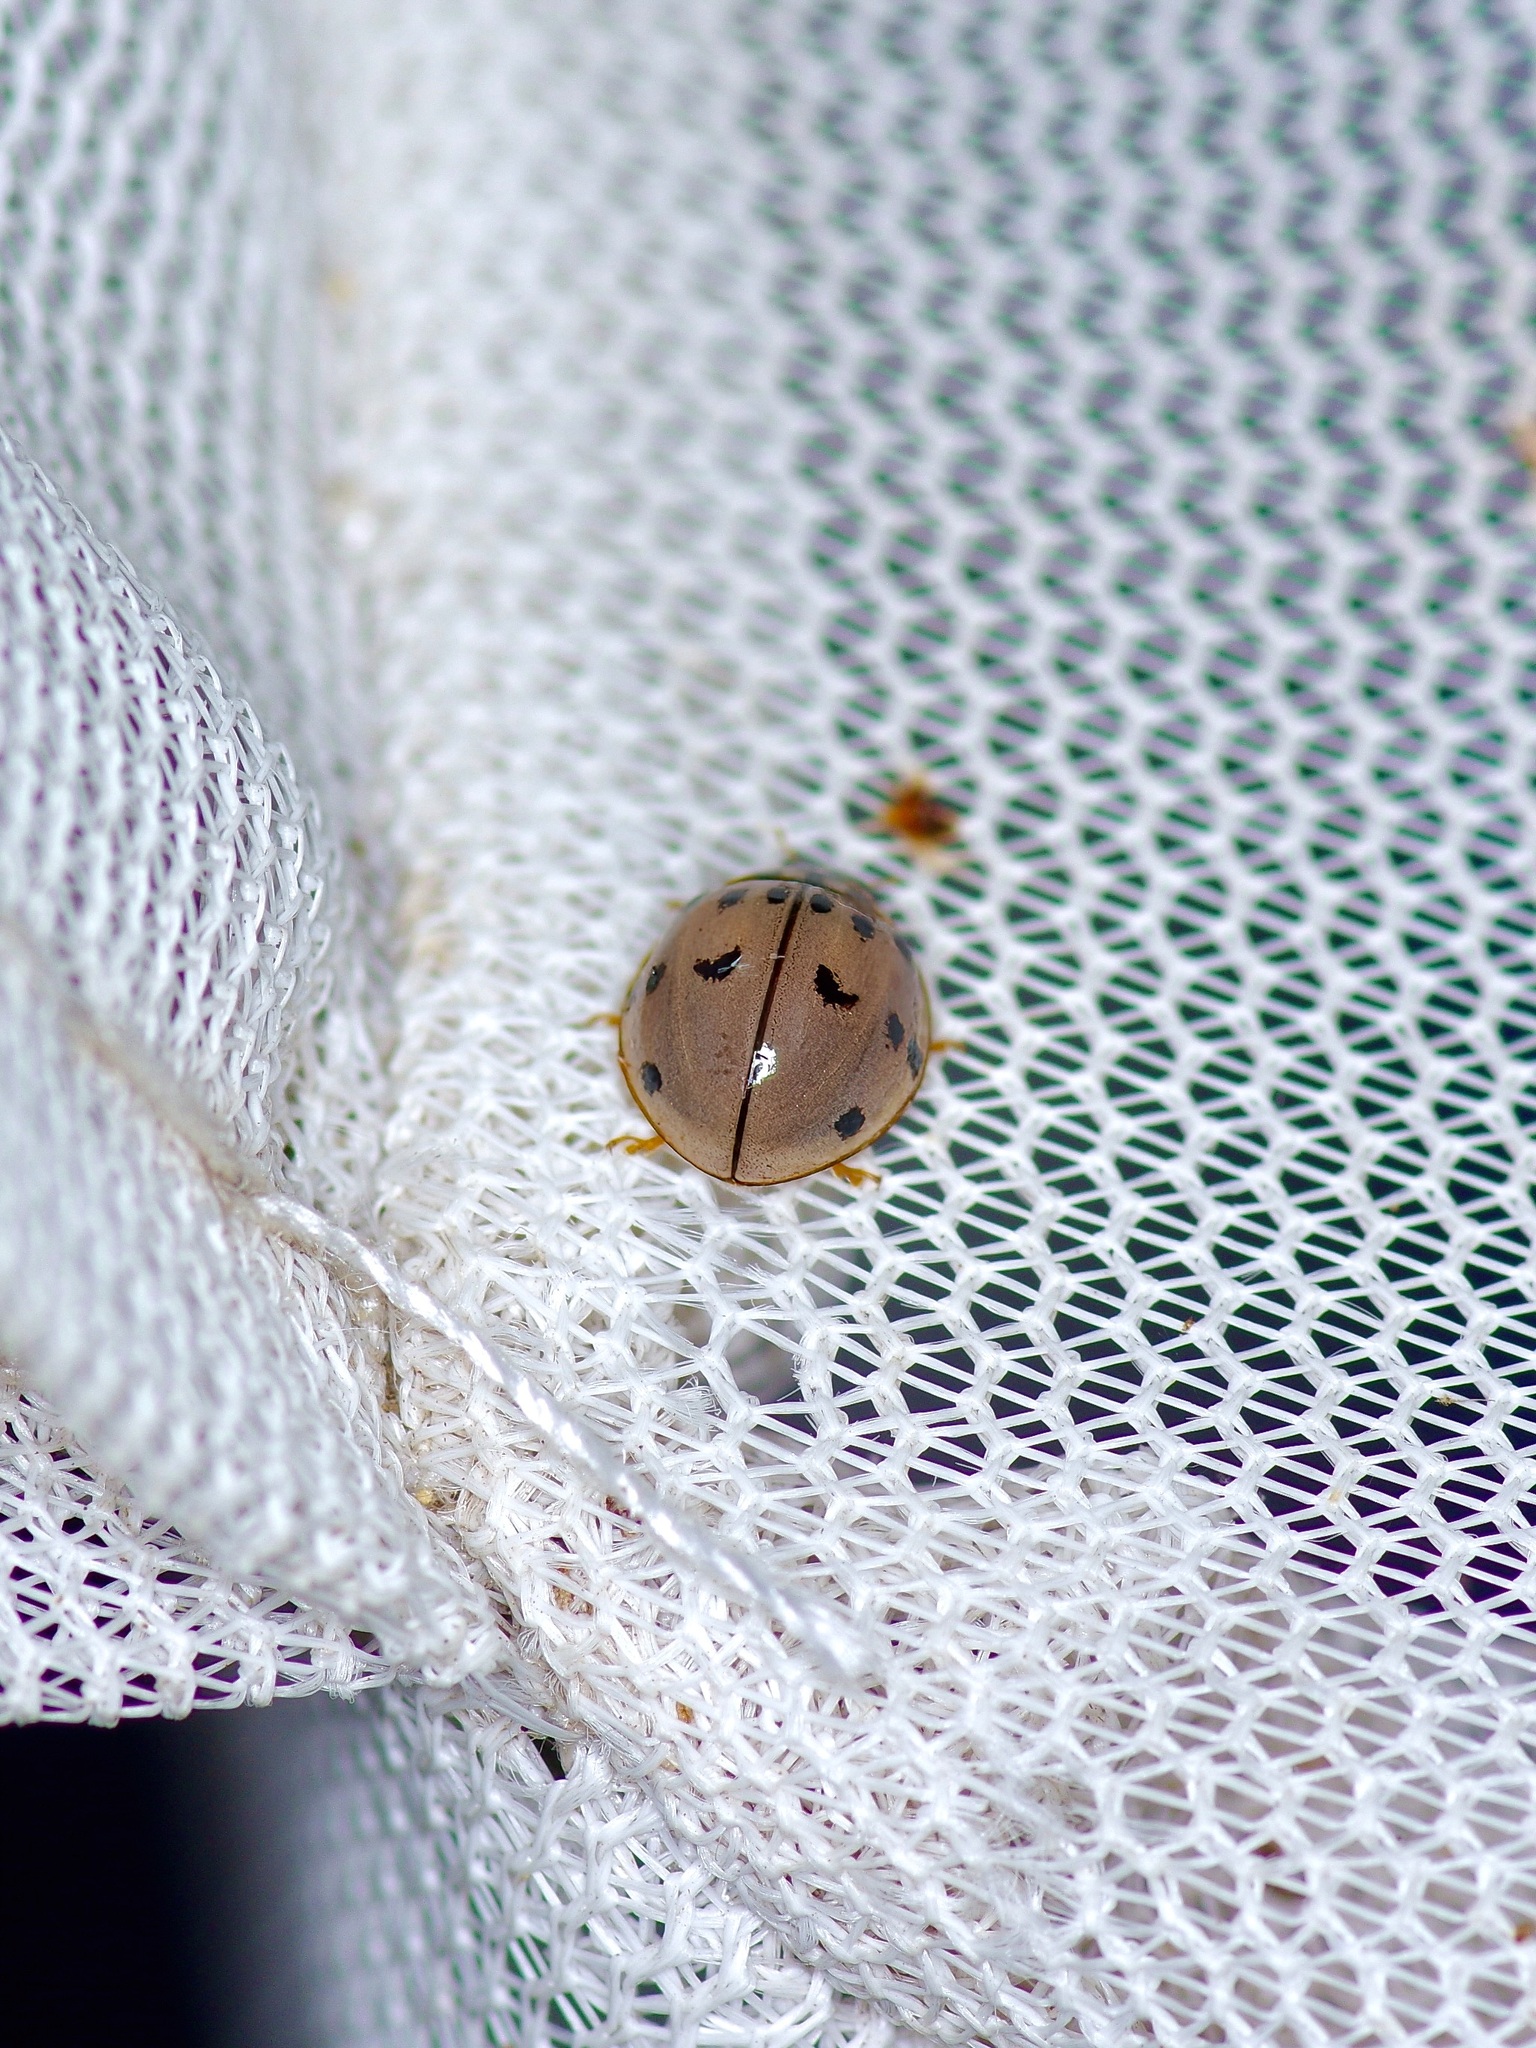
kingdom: Animalia
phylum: Arthropoda
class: Insecta
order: Coleoptera
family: Coccinellidae
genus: Olla
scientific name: Olla v-nigrum
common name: Ashy gray lady beetle
